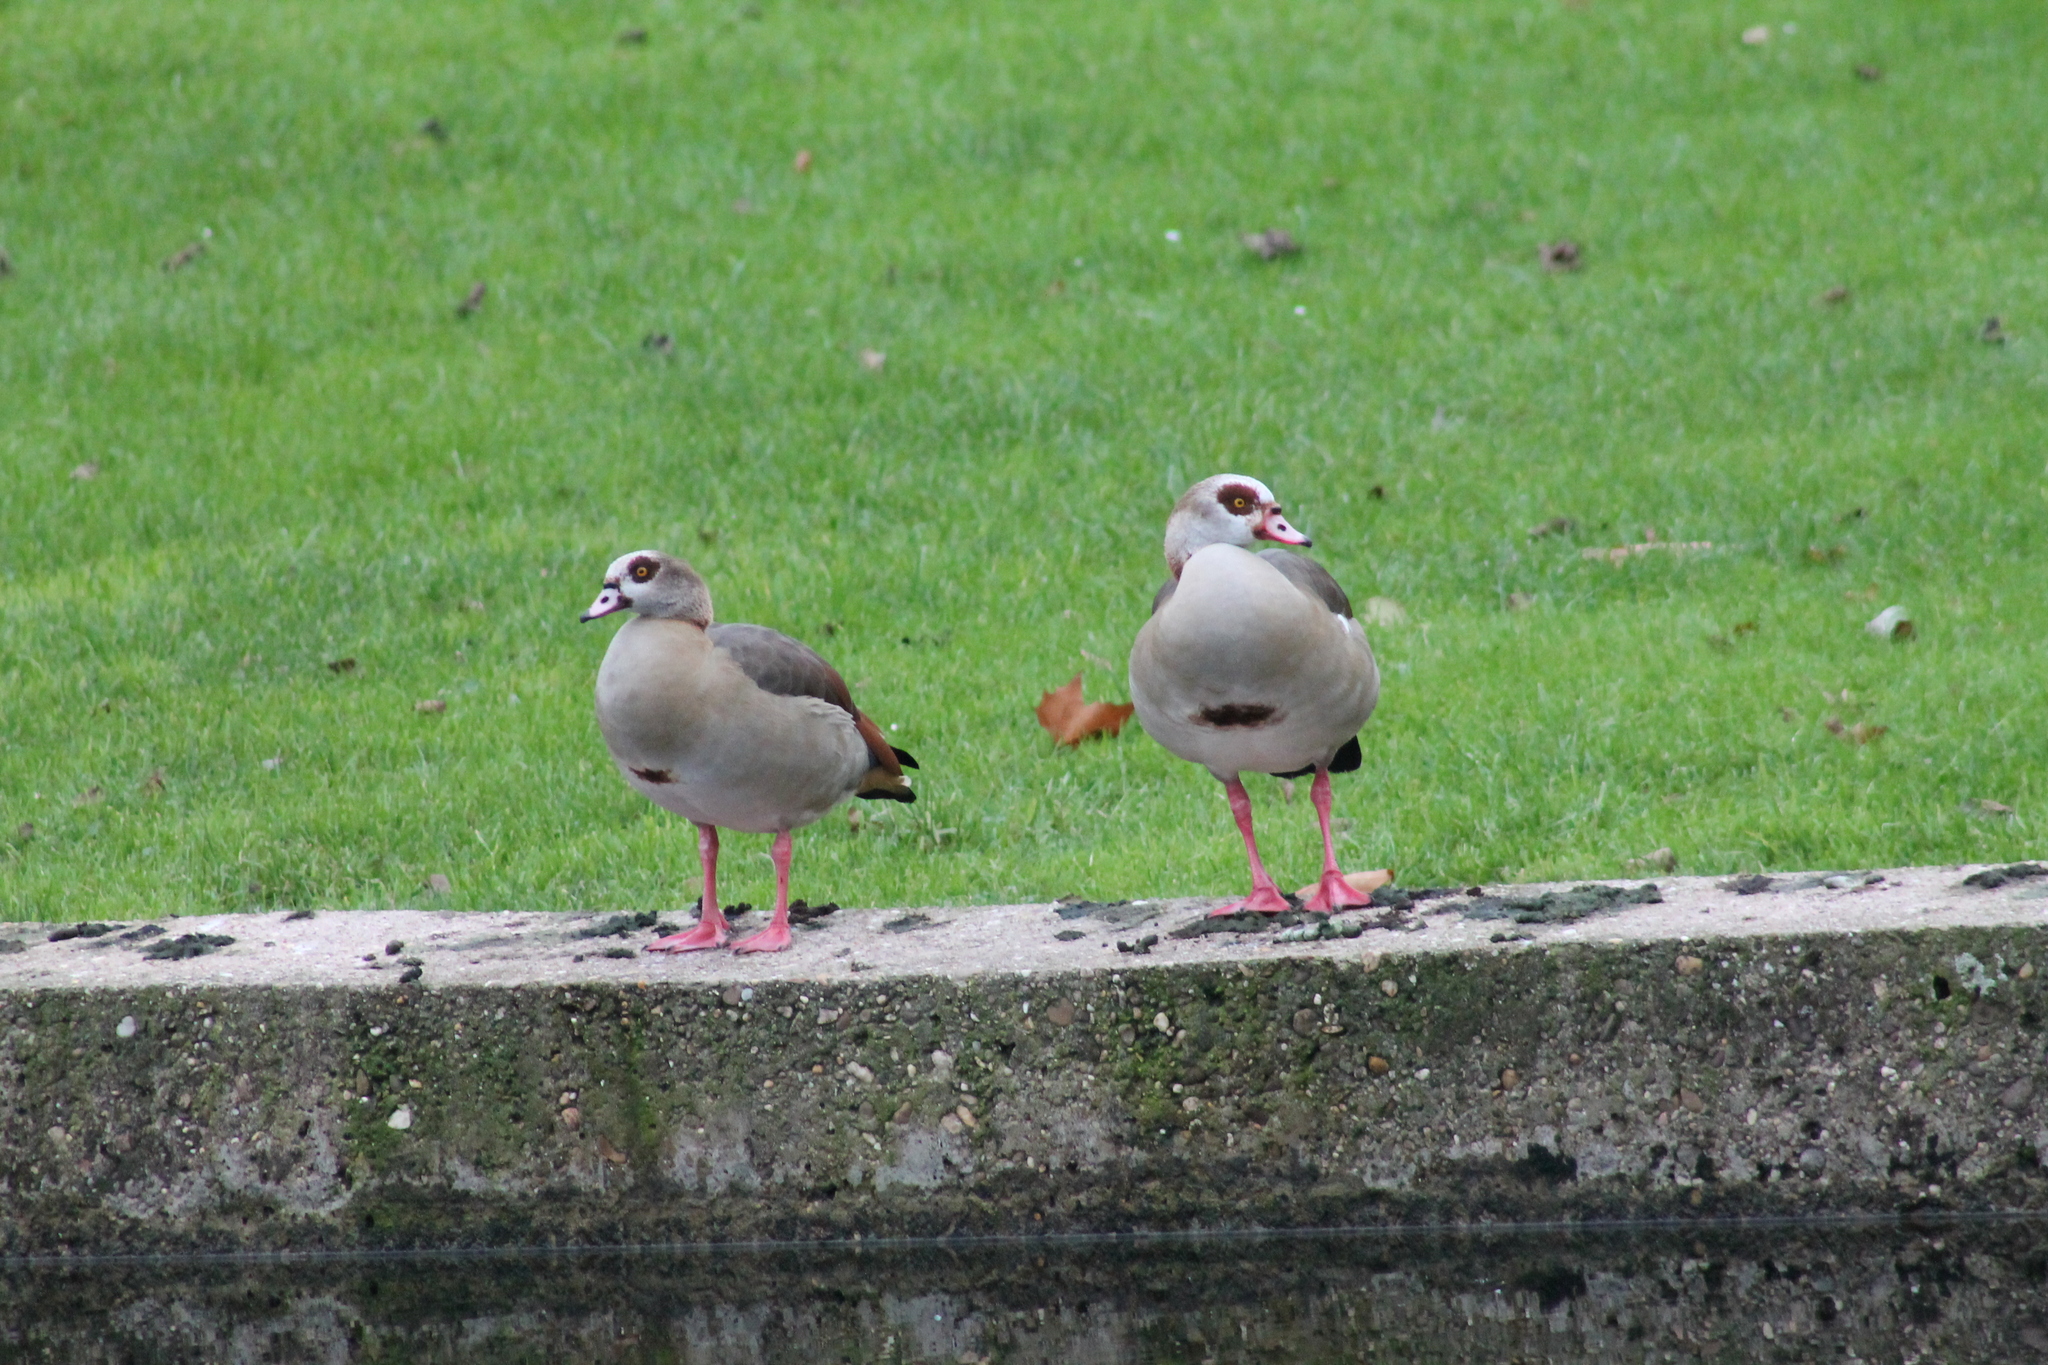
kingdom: Animalia
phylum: Chordata
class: Aves
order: Anseriformes
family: Anatidae
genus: Alopochen
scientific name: Alopochen aegyptiaca
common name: Egyptian goose
